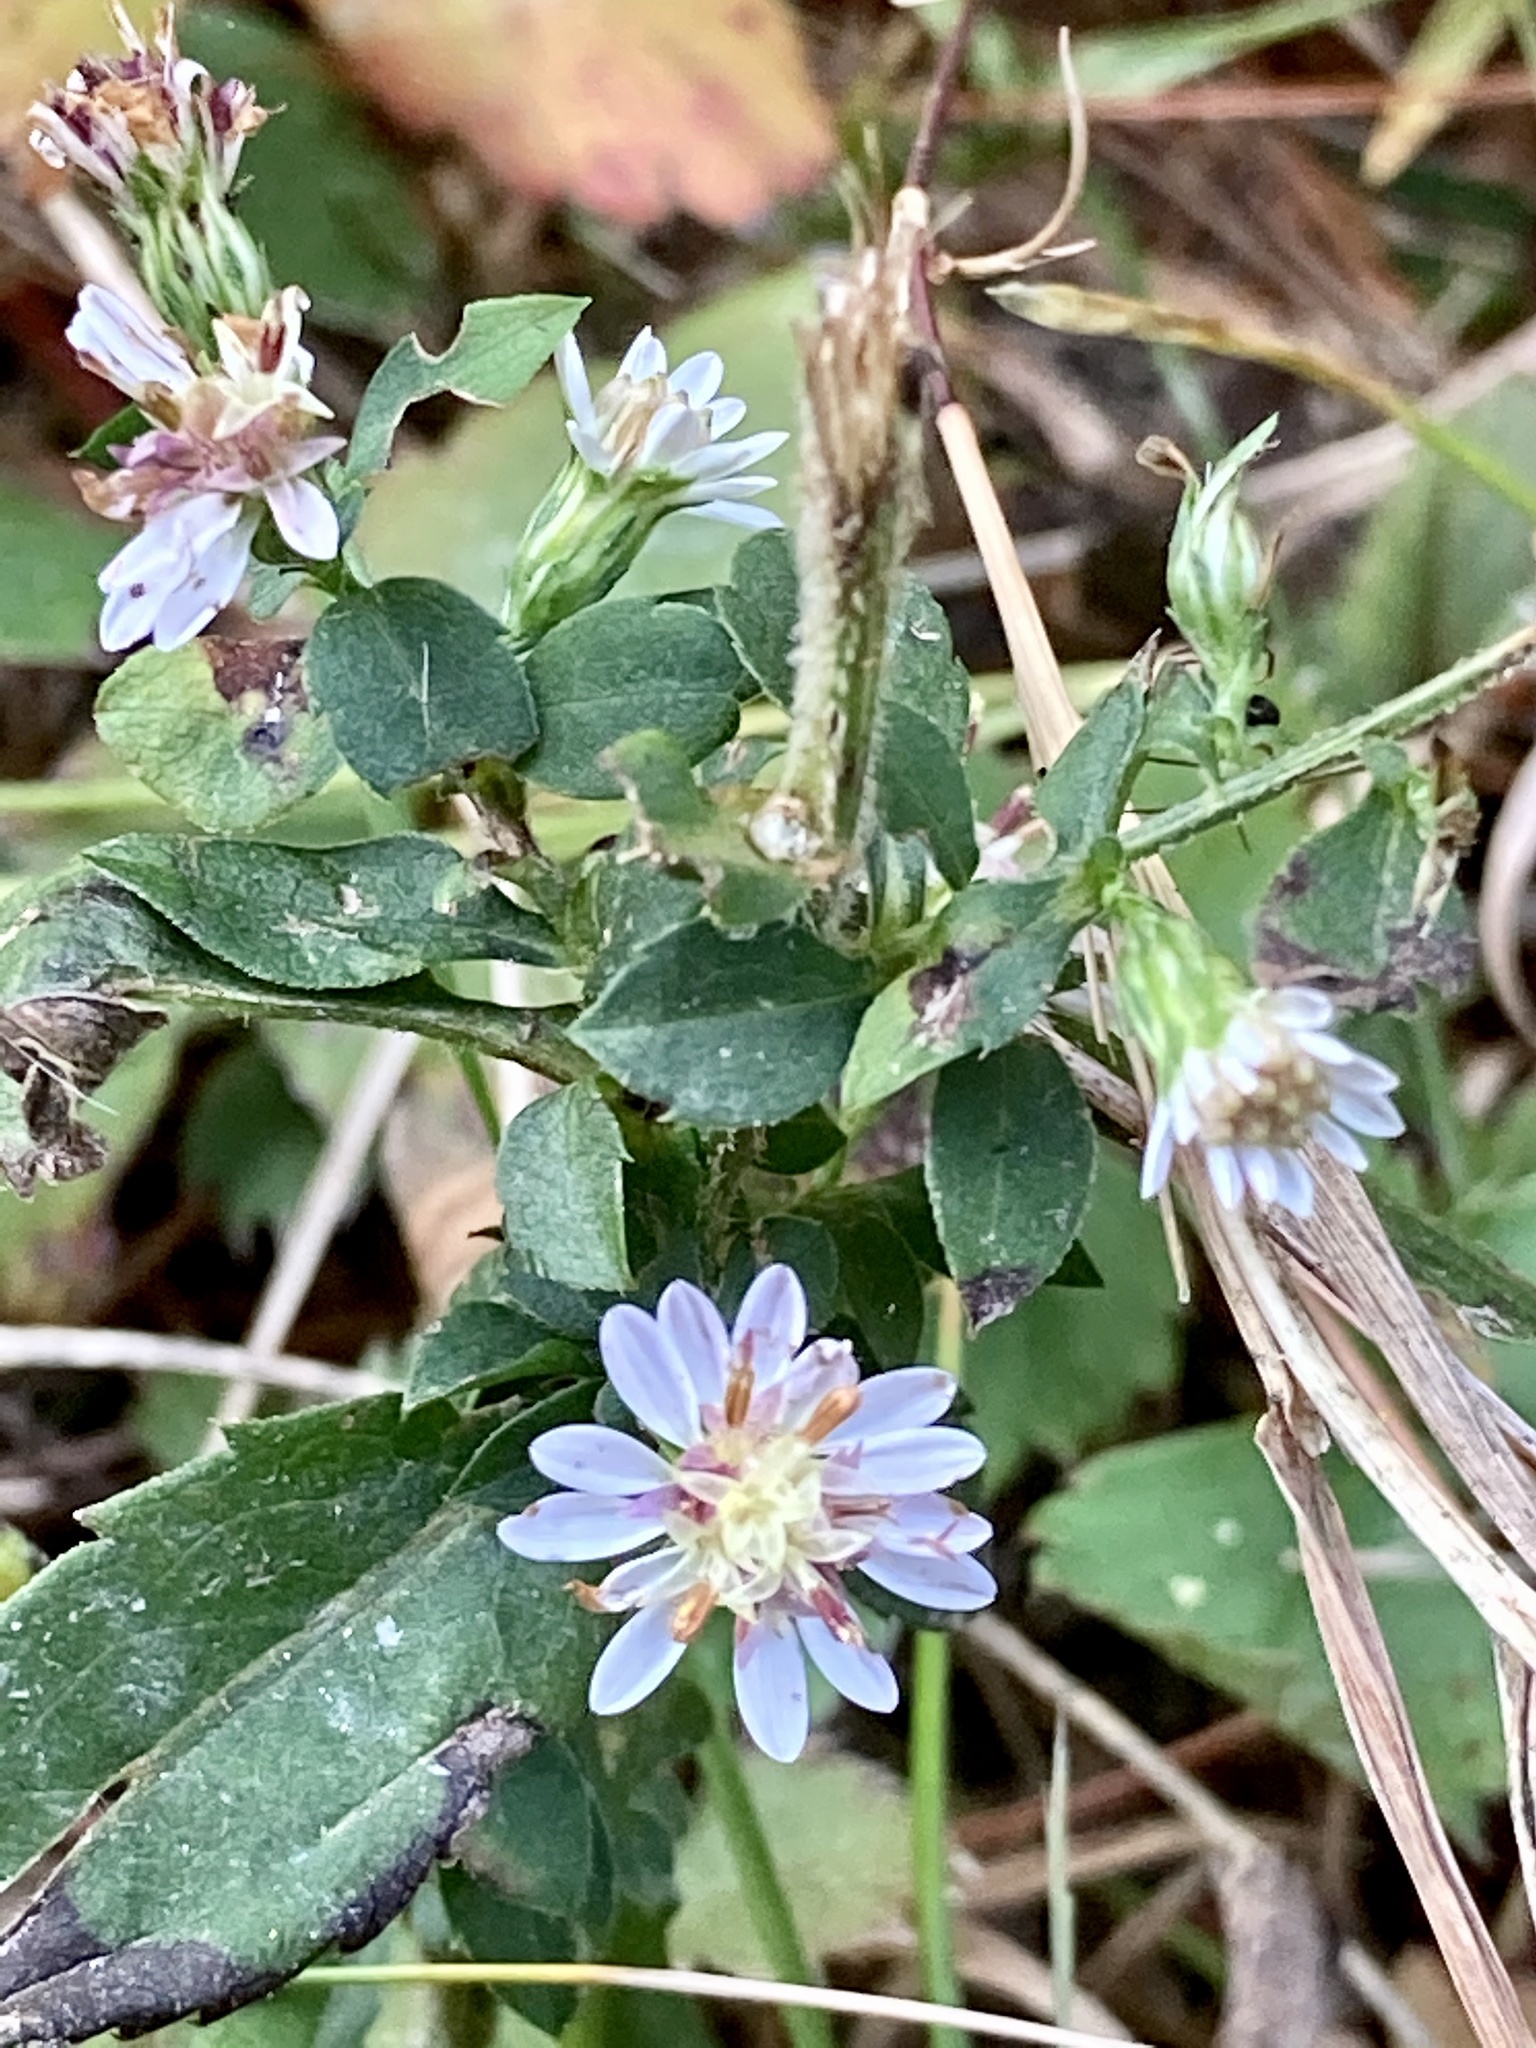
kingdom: Plantae
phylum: Tracheophyta
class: Magnoliopsida
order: Asterales
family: Asteraceae
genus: Symphyotrichum
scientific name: Symphyotrichum lateriflorum
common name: Calico aster
